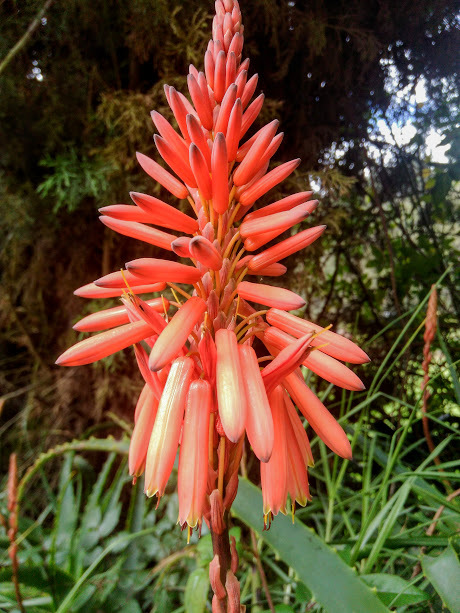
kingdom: Plantae
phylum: Tracheophyta
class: Liliopsida
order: Asparagales
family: Asphodelaceae
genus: Aloe
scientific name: Aloe arborescens
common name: Candelabra aloe
